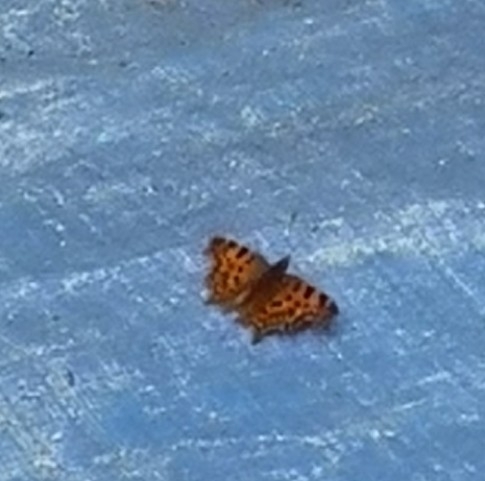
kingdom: Animalia
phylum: Arthropoda
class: Insecta
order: Lepidoptera
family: Nymphalidae
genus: Polygonia
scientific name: Polygonia c-album
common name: Comma
